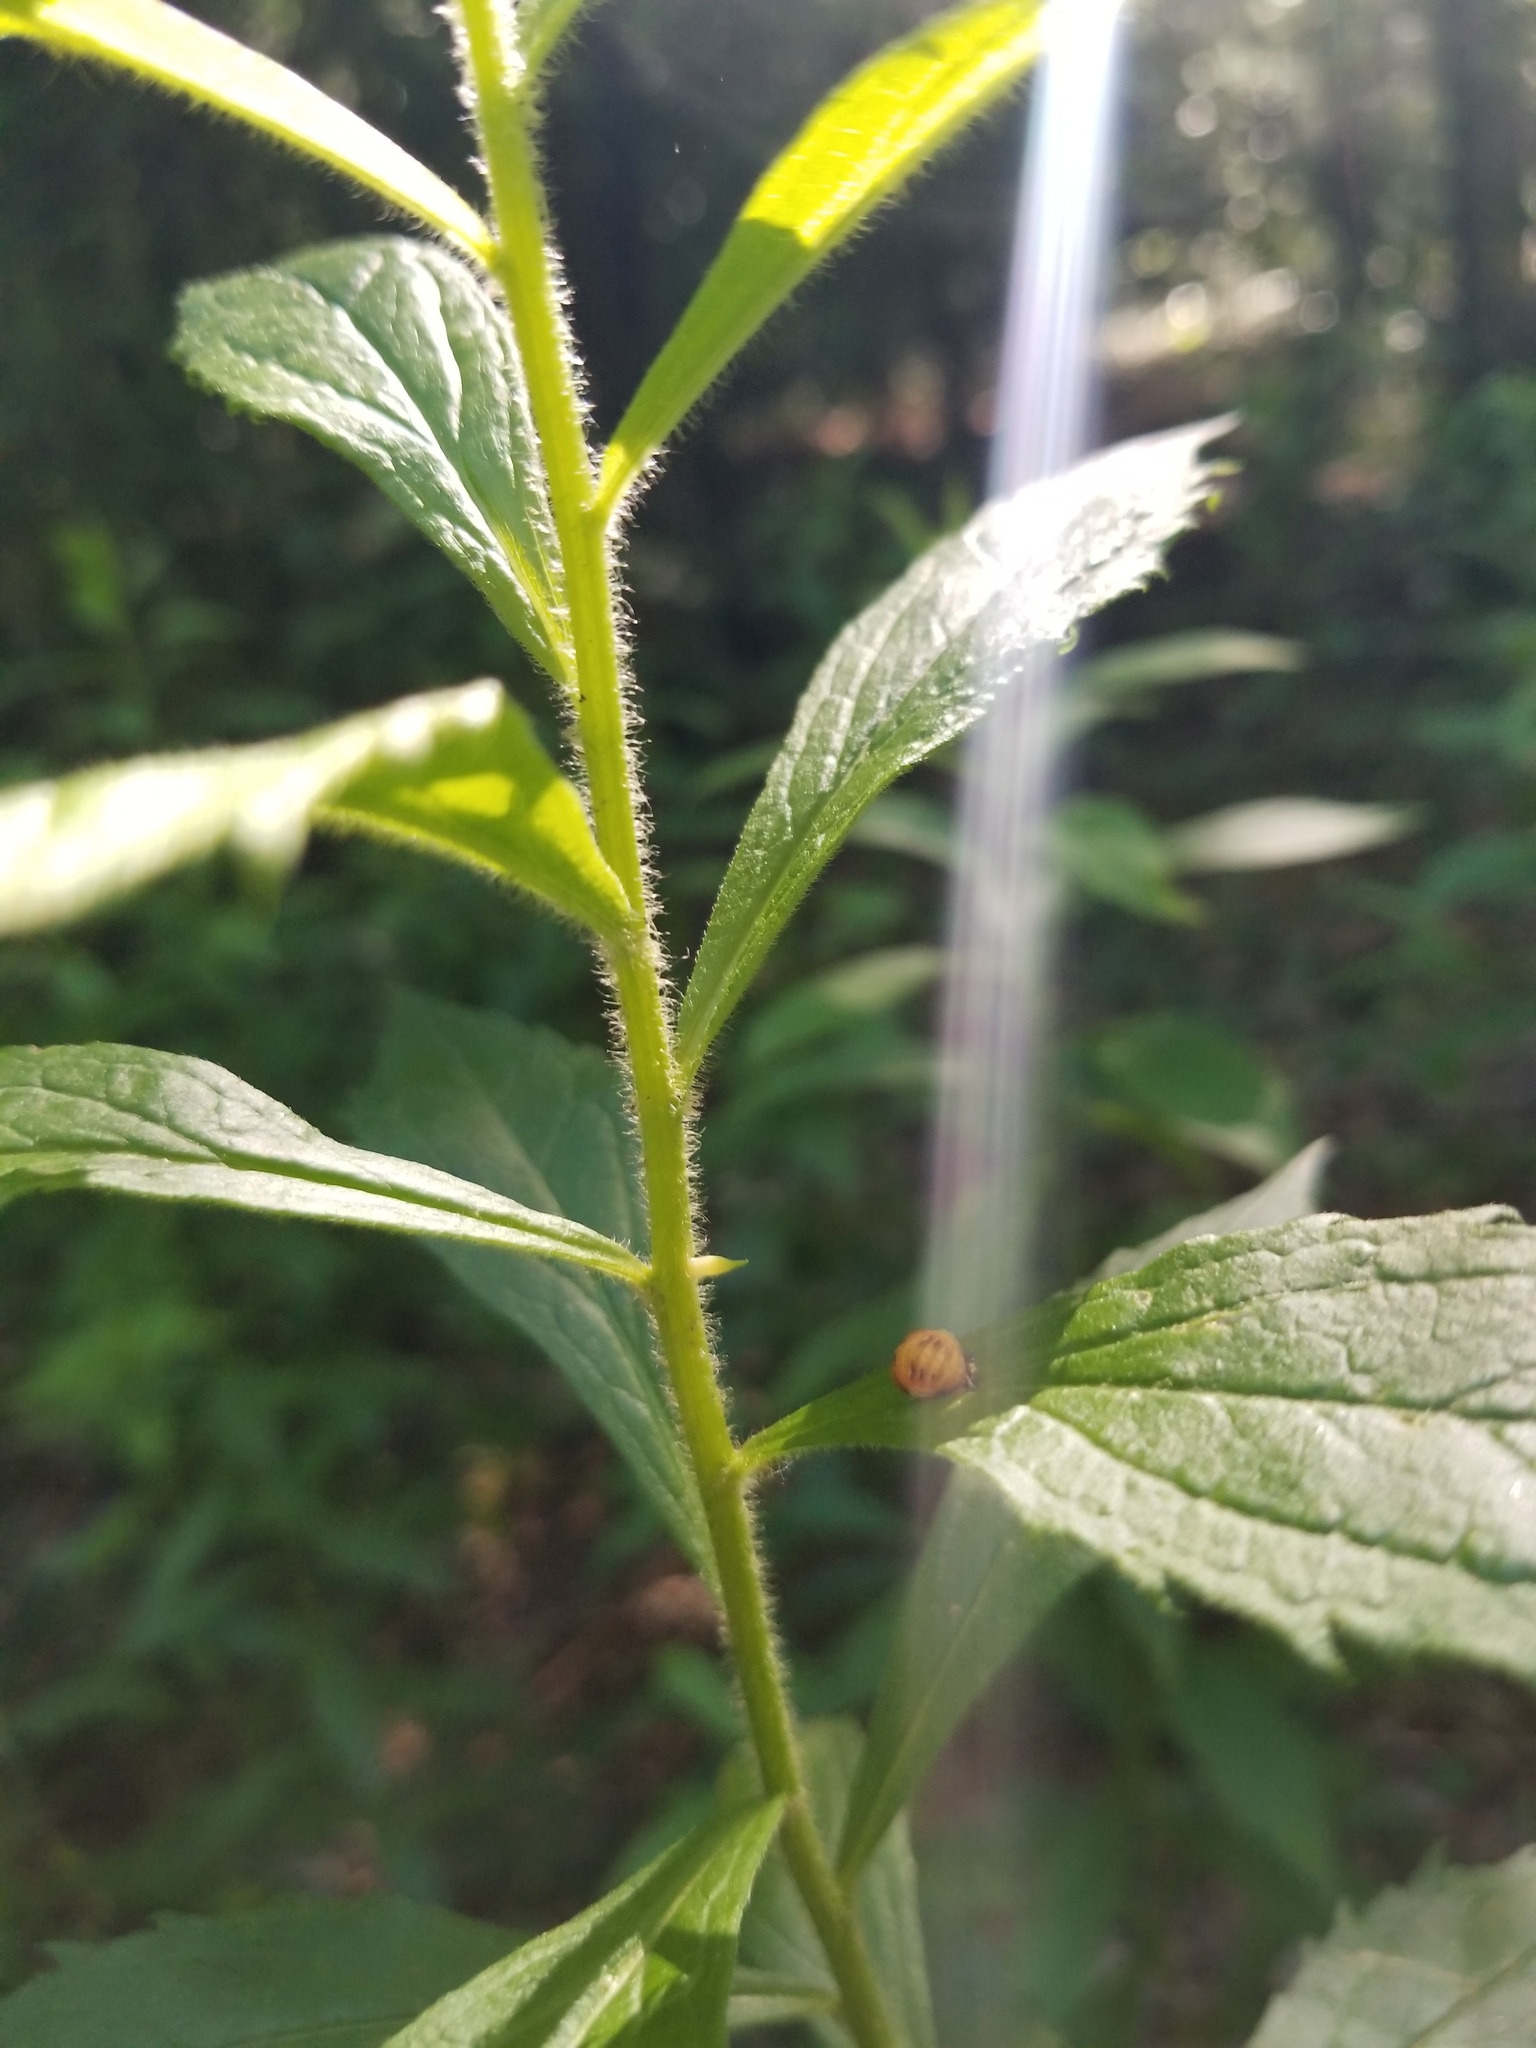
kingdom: Animalia
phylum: Arthropoda
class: Insecta
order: Diptera
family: Cecidomyiidae
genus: Rhopalomyia
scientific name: Rhopalomyia clarkei
